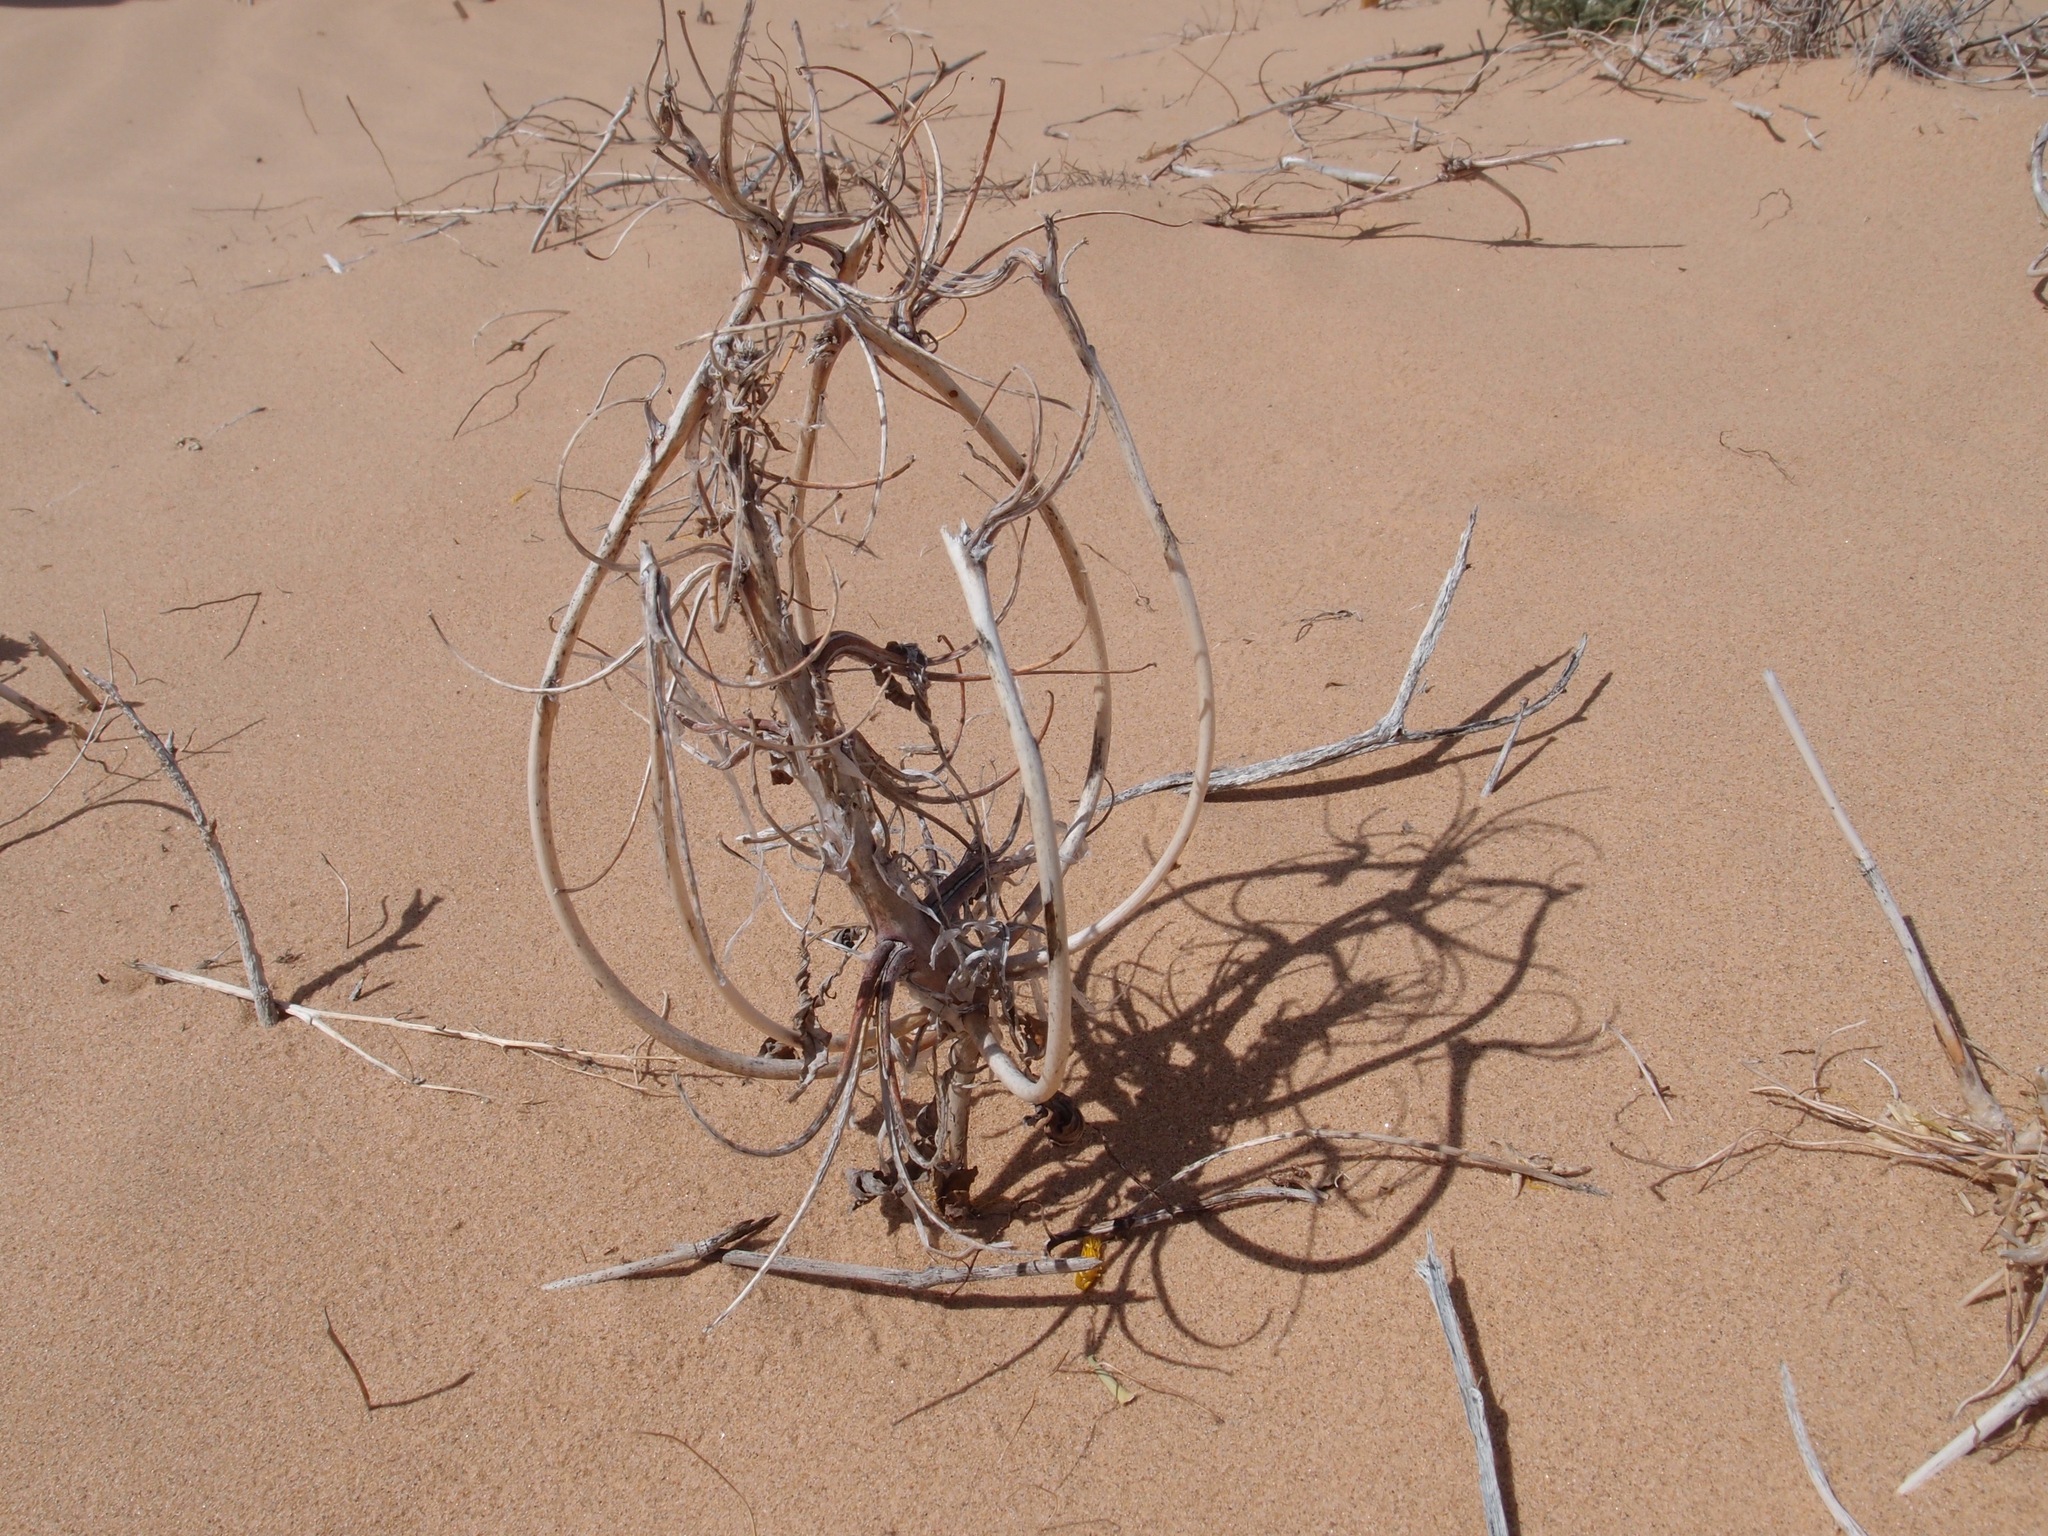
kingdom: Plantae
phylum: Tracheophyta
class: Magnoliopsida
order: Myrtales
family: Onagraceae
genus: Oenothera
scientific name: Oenothera deltoides
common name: Basket evening-primrose
